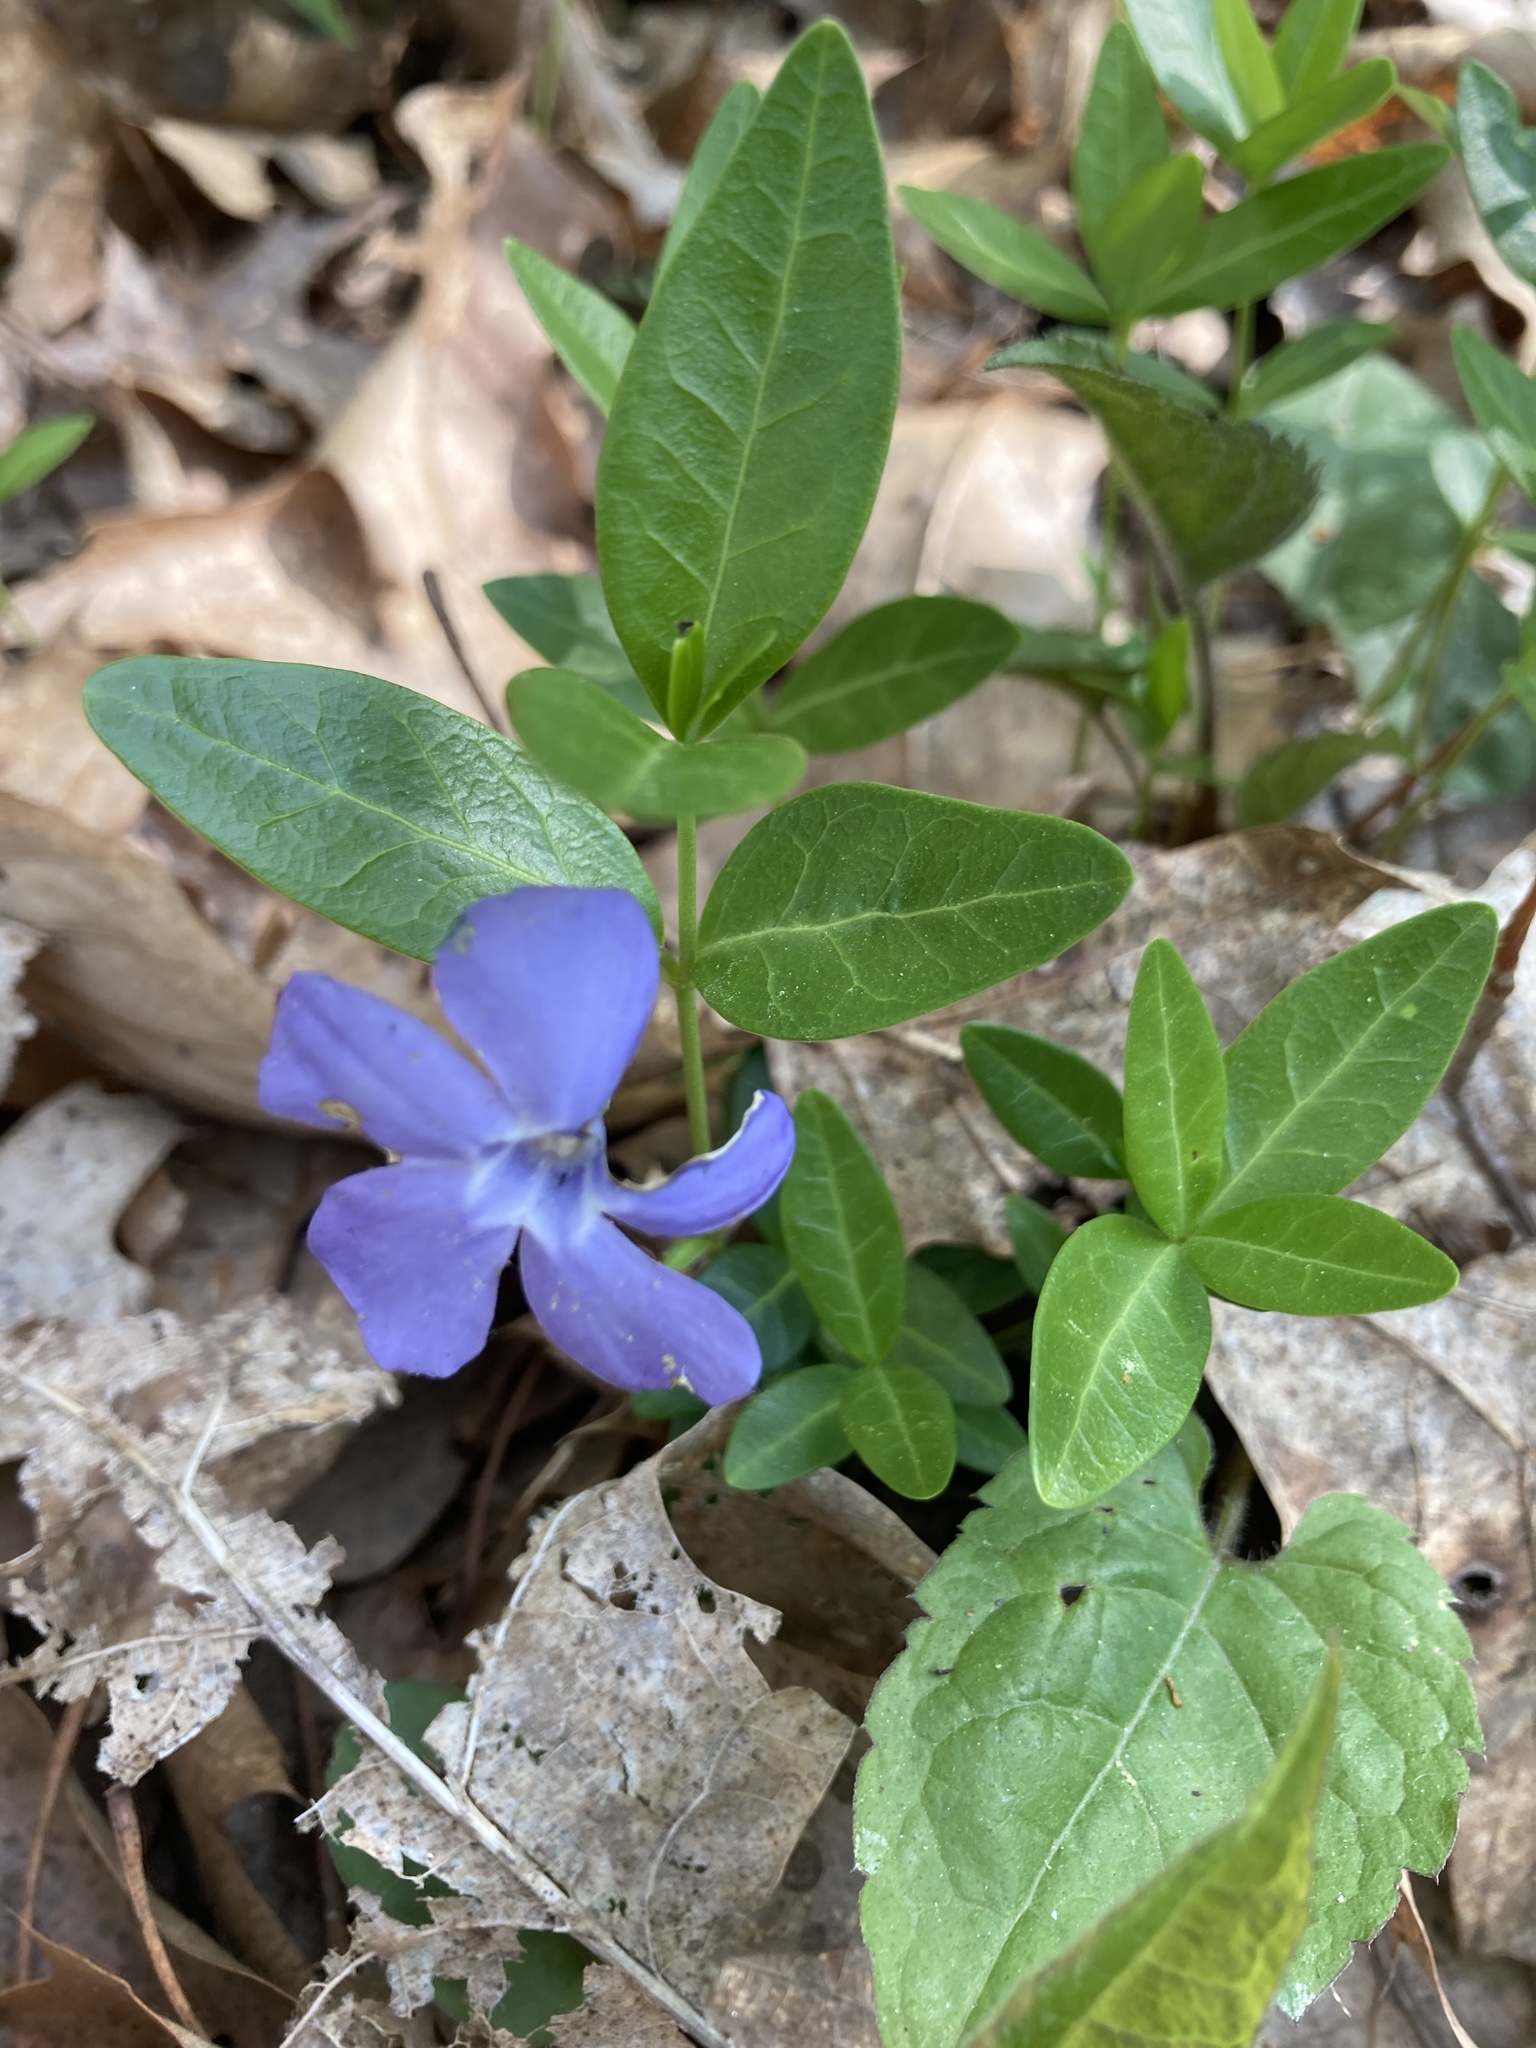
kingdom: Plantae
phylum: Tracheophyta
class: Magnoliopsida
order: Gentianales
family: Apocynaceae
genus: Vinca
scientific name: Vinca minor
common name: Lesser periwinkle
